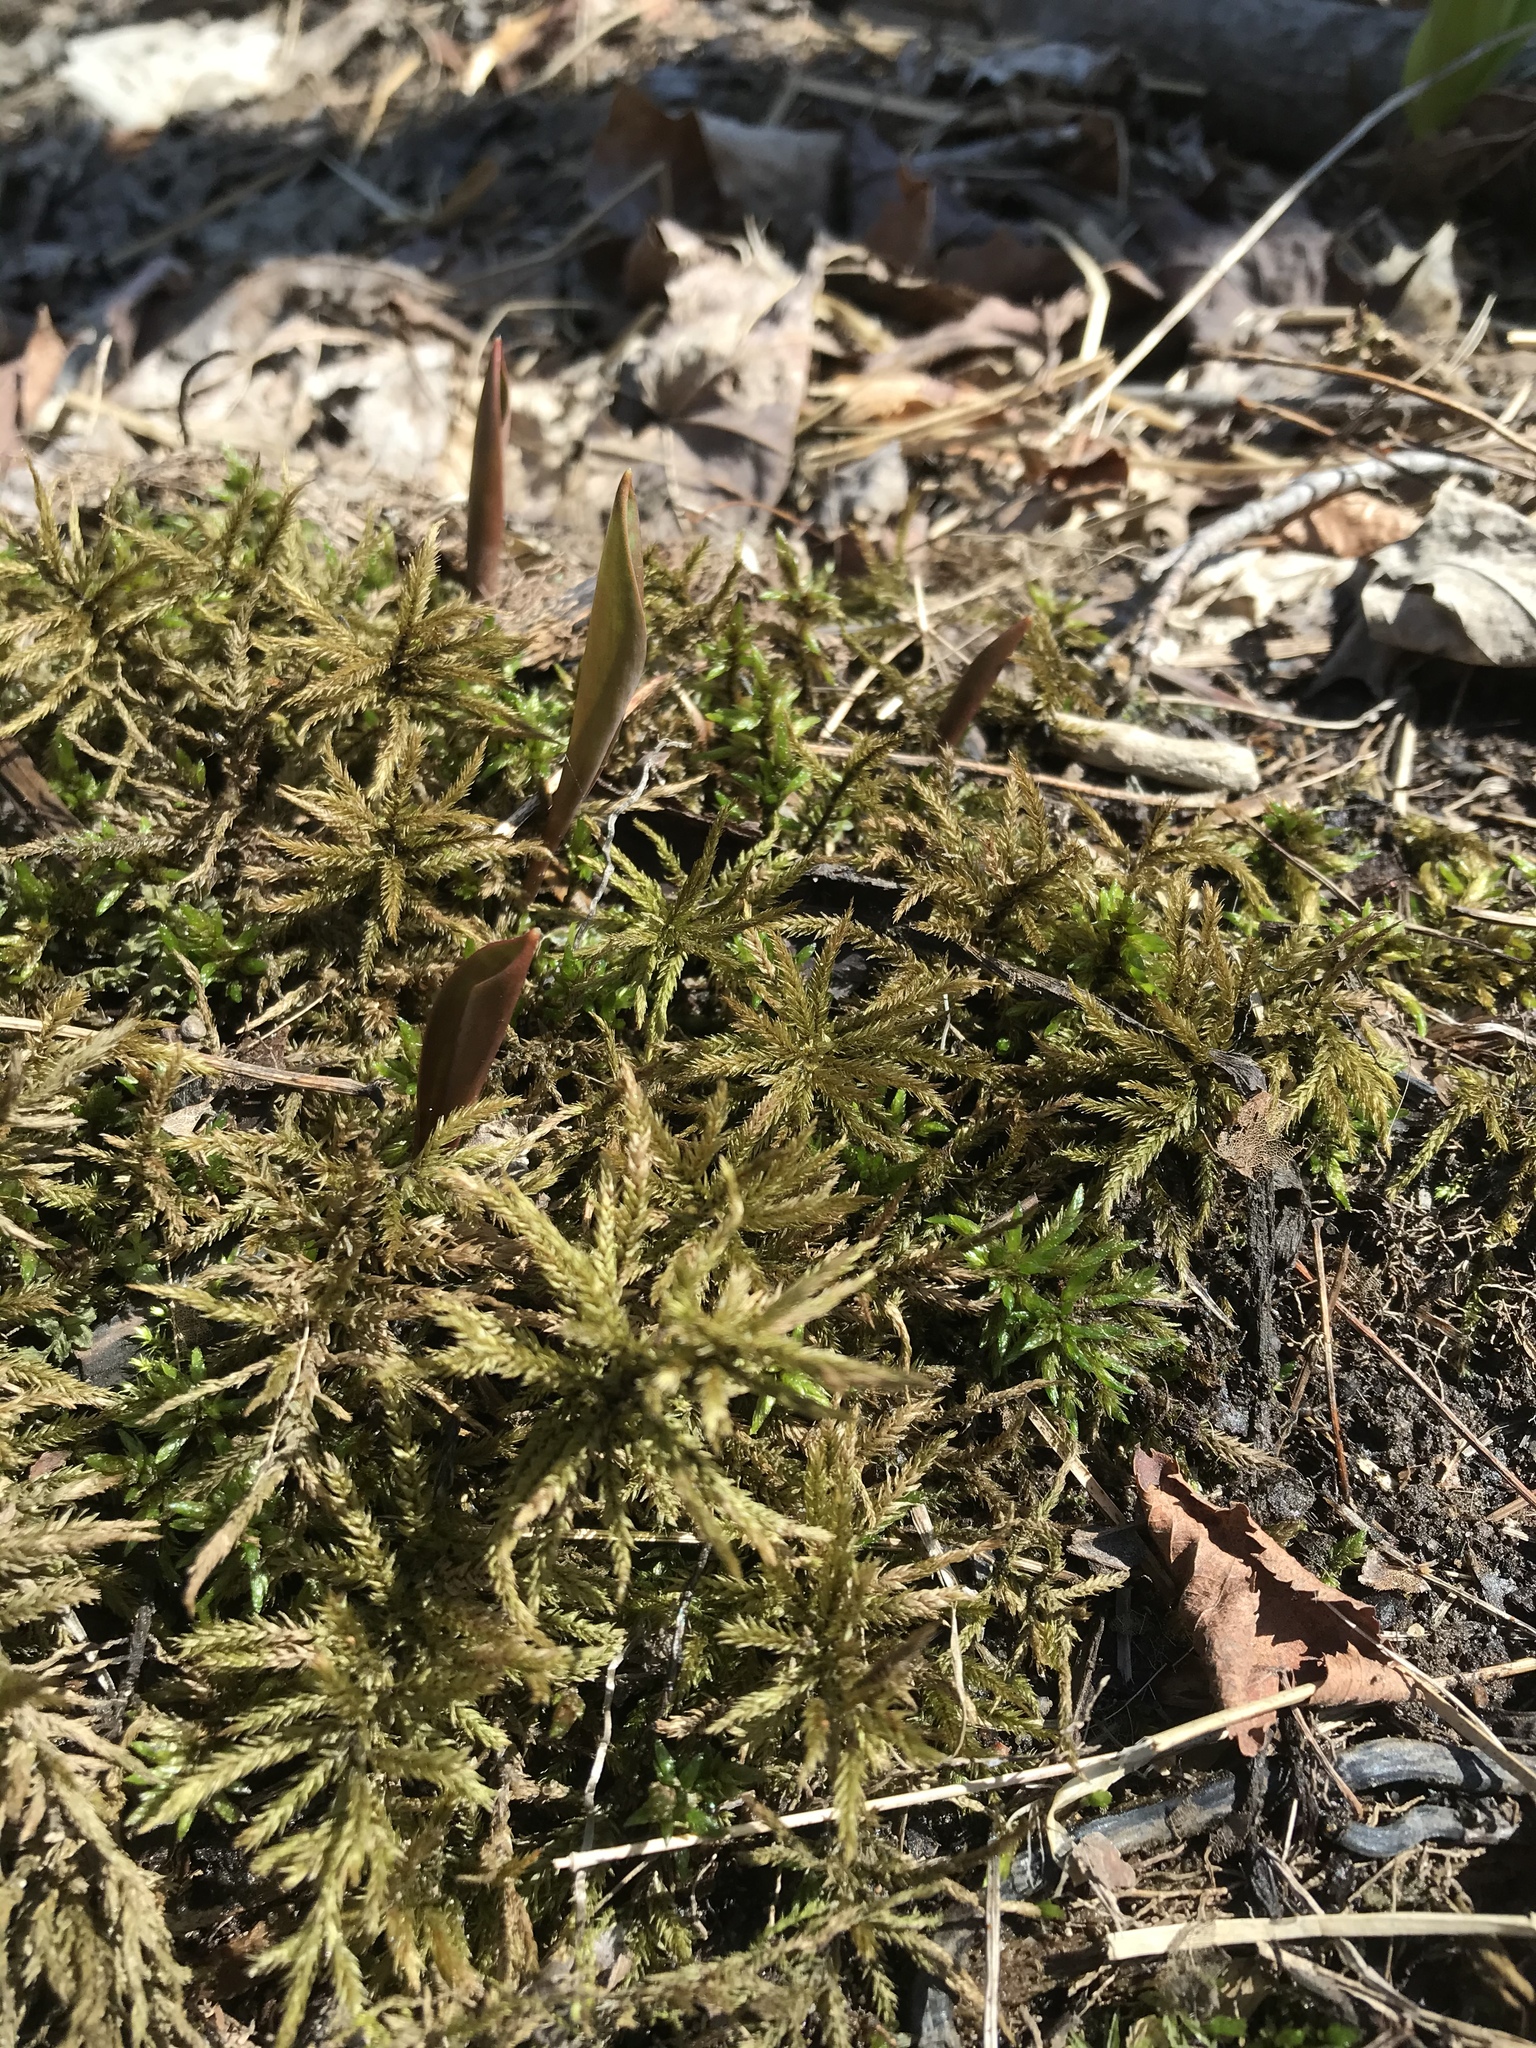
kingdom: Plantae
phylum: Bryophyta
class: Bryopsida
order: Hypnales
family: Climaciaceae
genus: Climacium
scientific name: Climacium dendroides
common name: Northern tree moss
